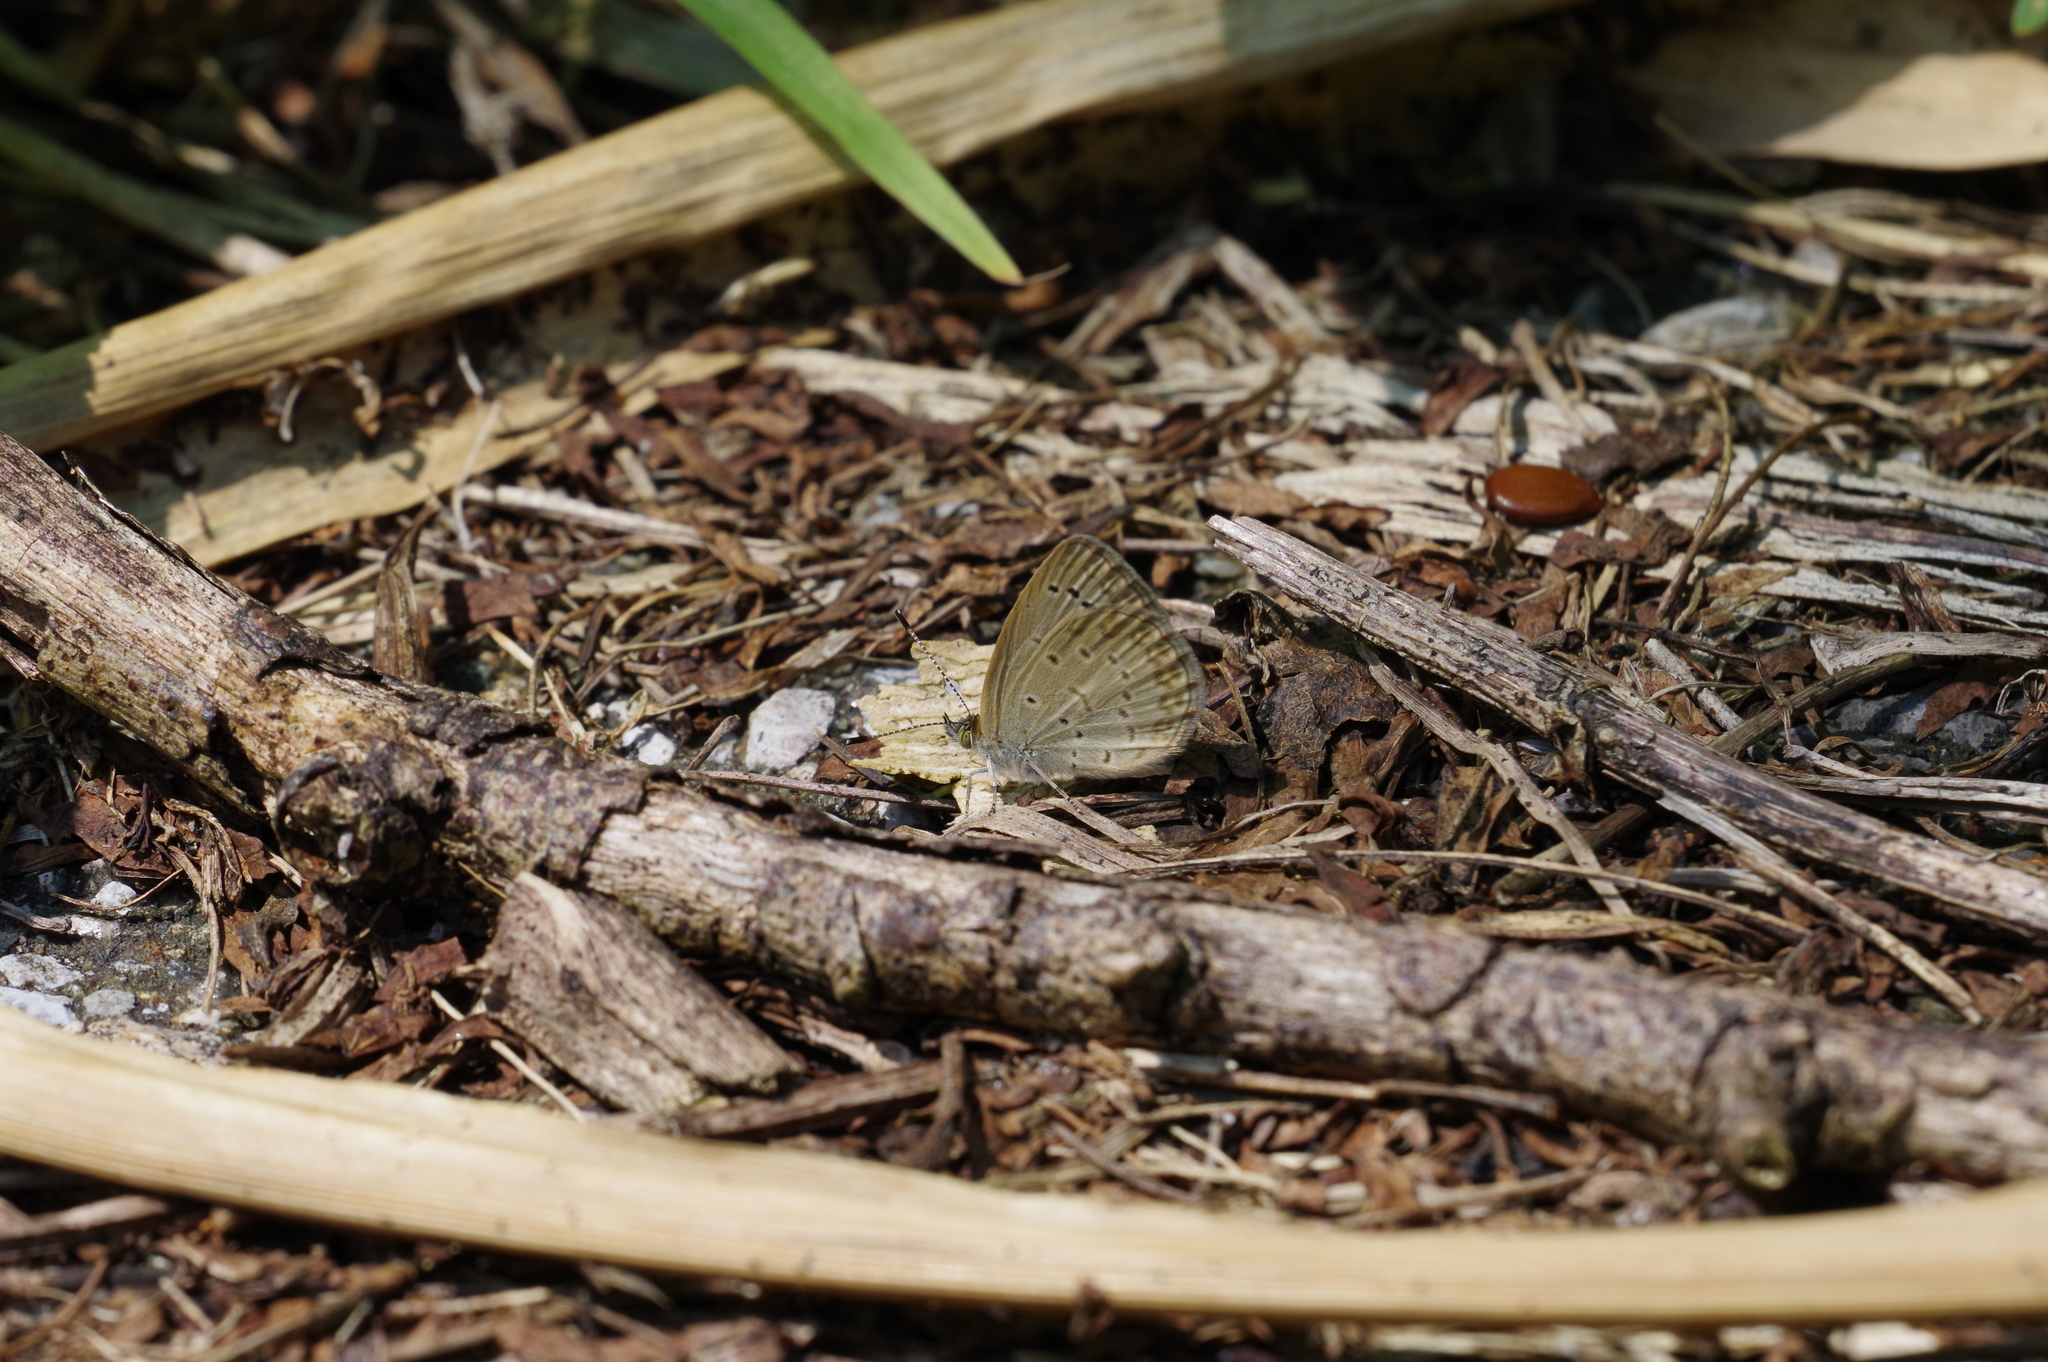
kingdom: Animalia
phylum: Arthropoda
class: Insecta
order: Lepidoptera
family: Lycaenidae
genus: Pseudozizeeria
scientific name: Pseudozizeeria maha
